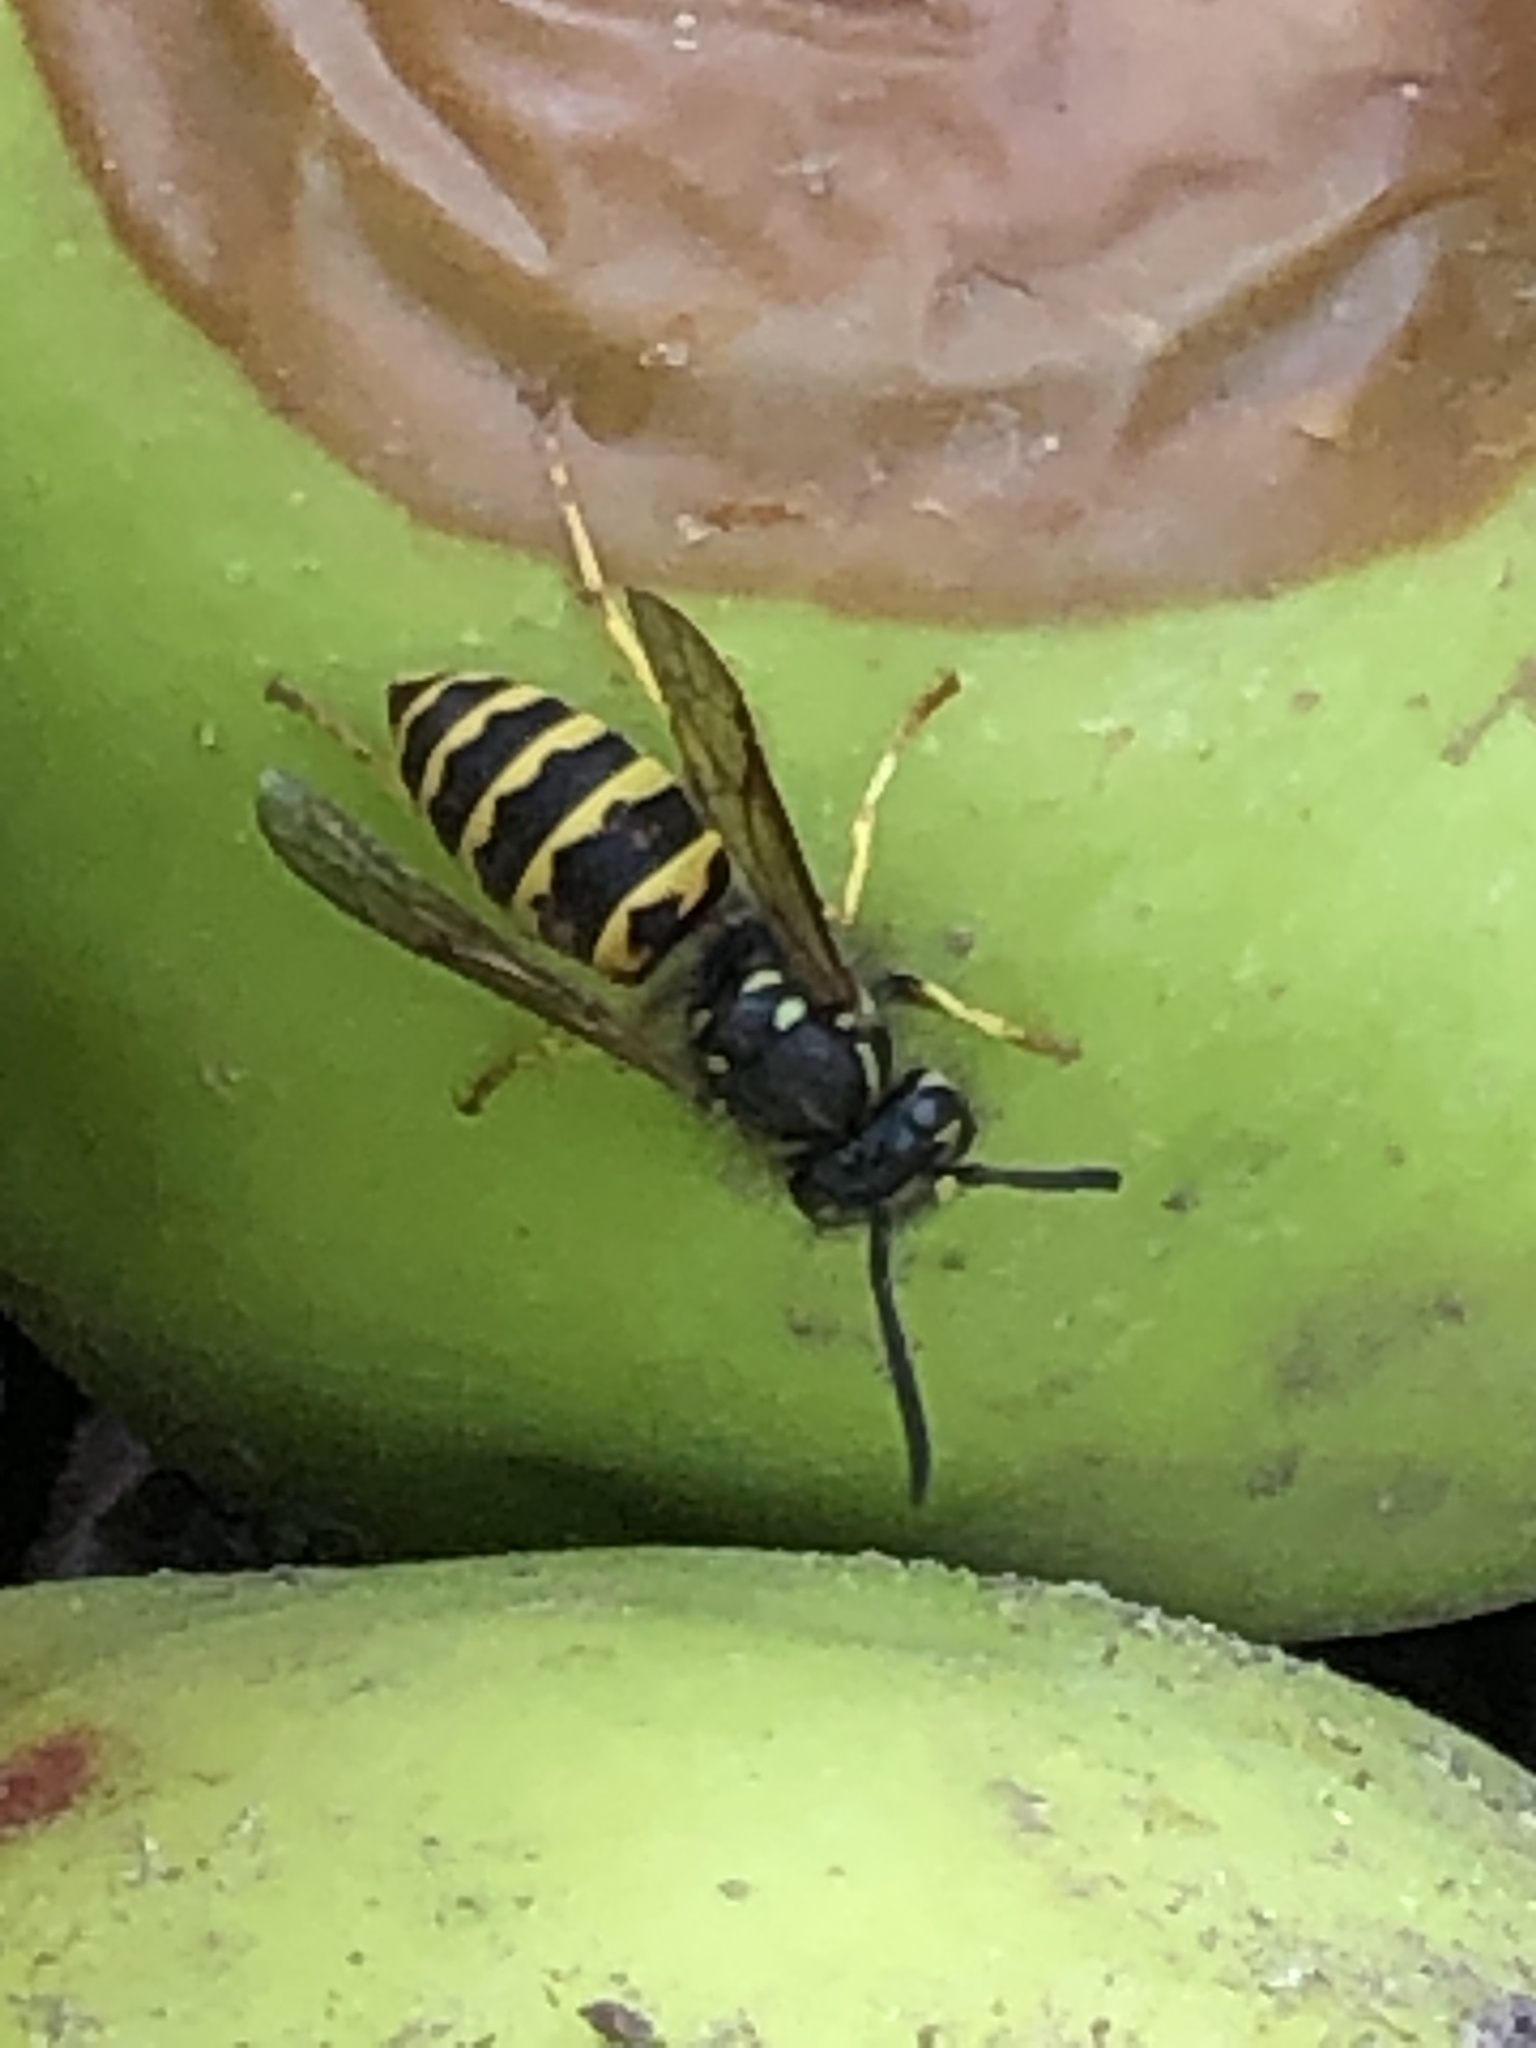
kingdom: Animalia
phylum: Arthropoda
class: Insecta
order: Hymenoptera
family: Vespidae
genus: Vespula
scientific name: Vespula alascensis
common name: Alaska yellowjacket
